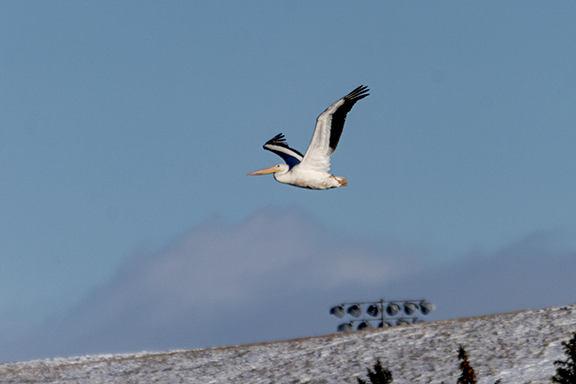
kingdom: Animalia
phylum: Chordata
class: Aves
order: Pelecaniformes
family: Pelecanidae
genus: Pelecanus
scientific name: Pelecanus erythrorhynchos
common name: American white pelican
